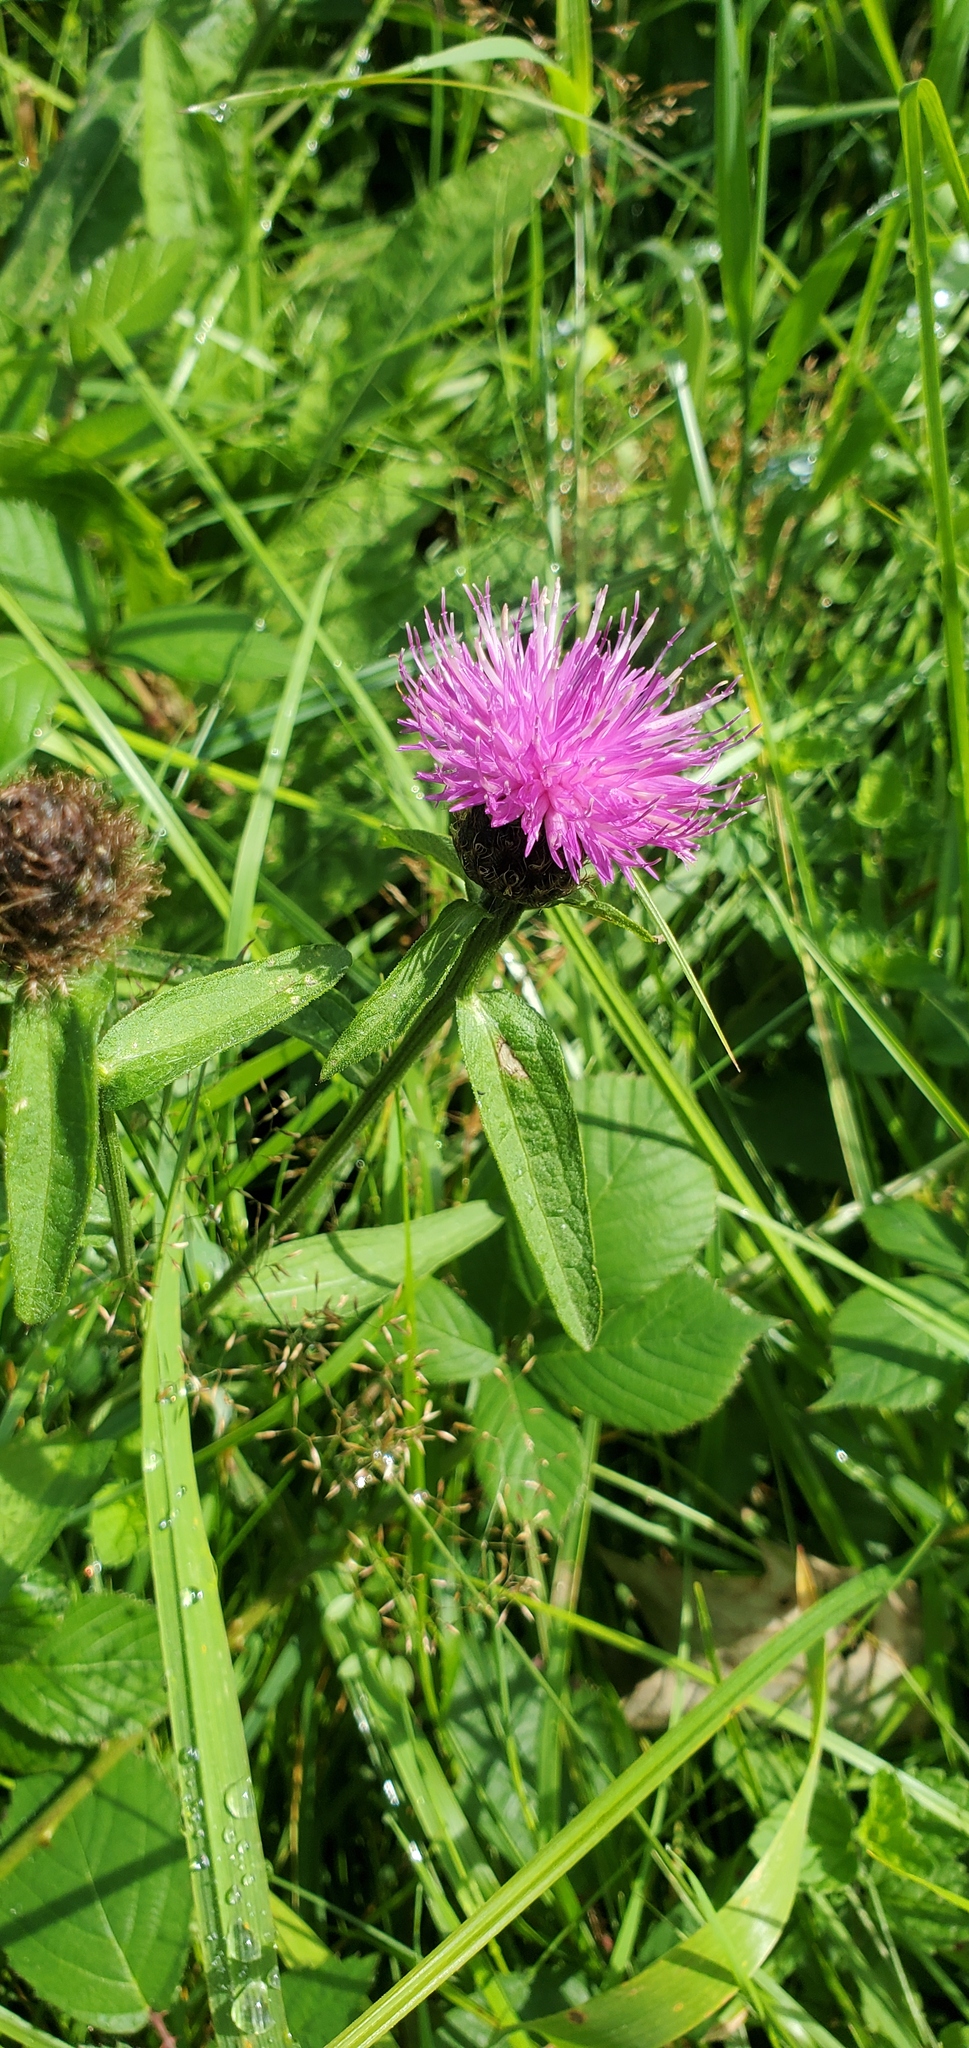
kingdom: Plantae
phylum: Tracheophyta
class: Magnoliopsida
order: Asterales
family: Asteraceae
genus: Centaurea
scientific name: Centaurea nigra
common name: Lesser knapweed
